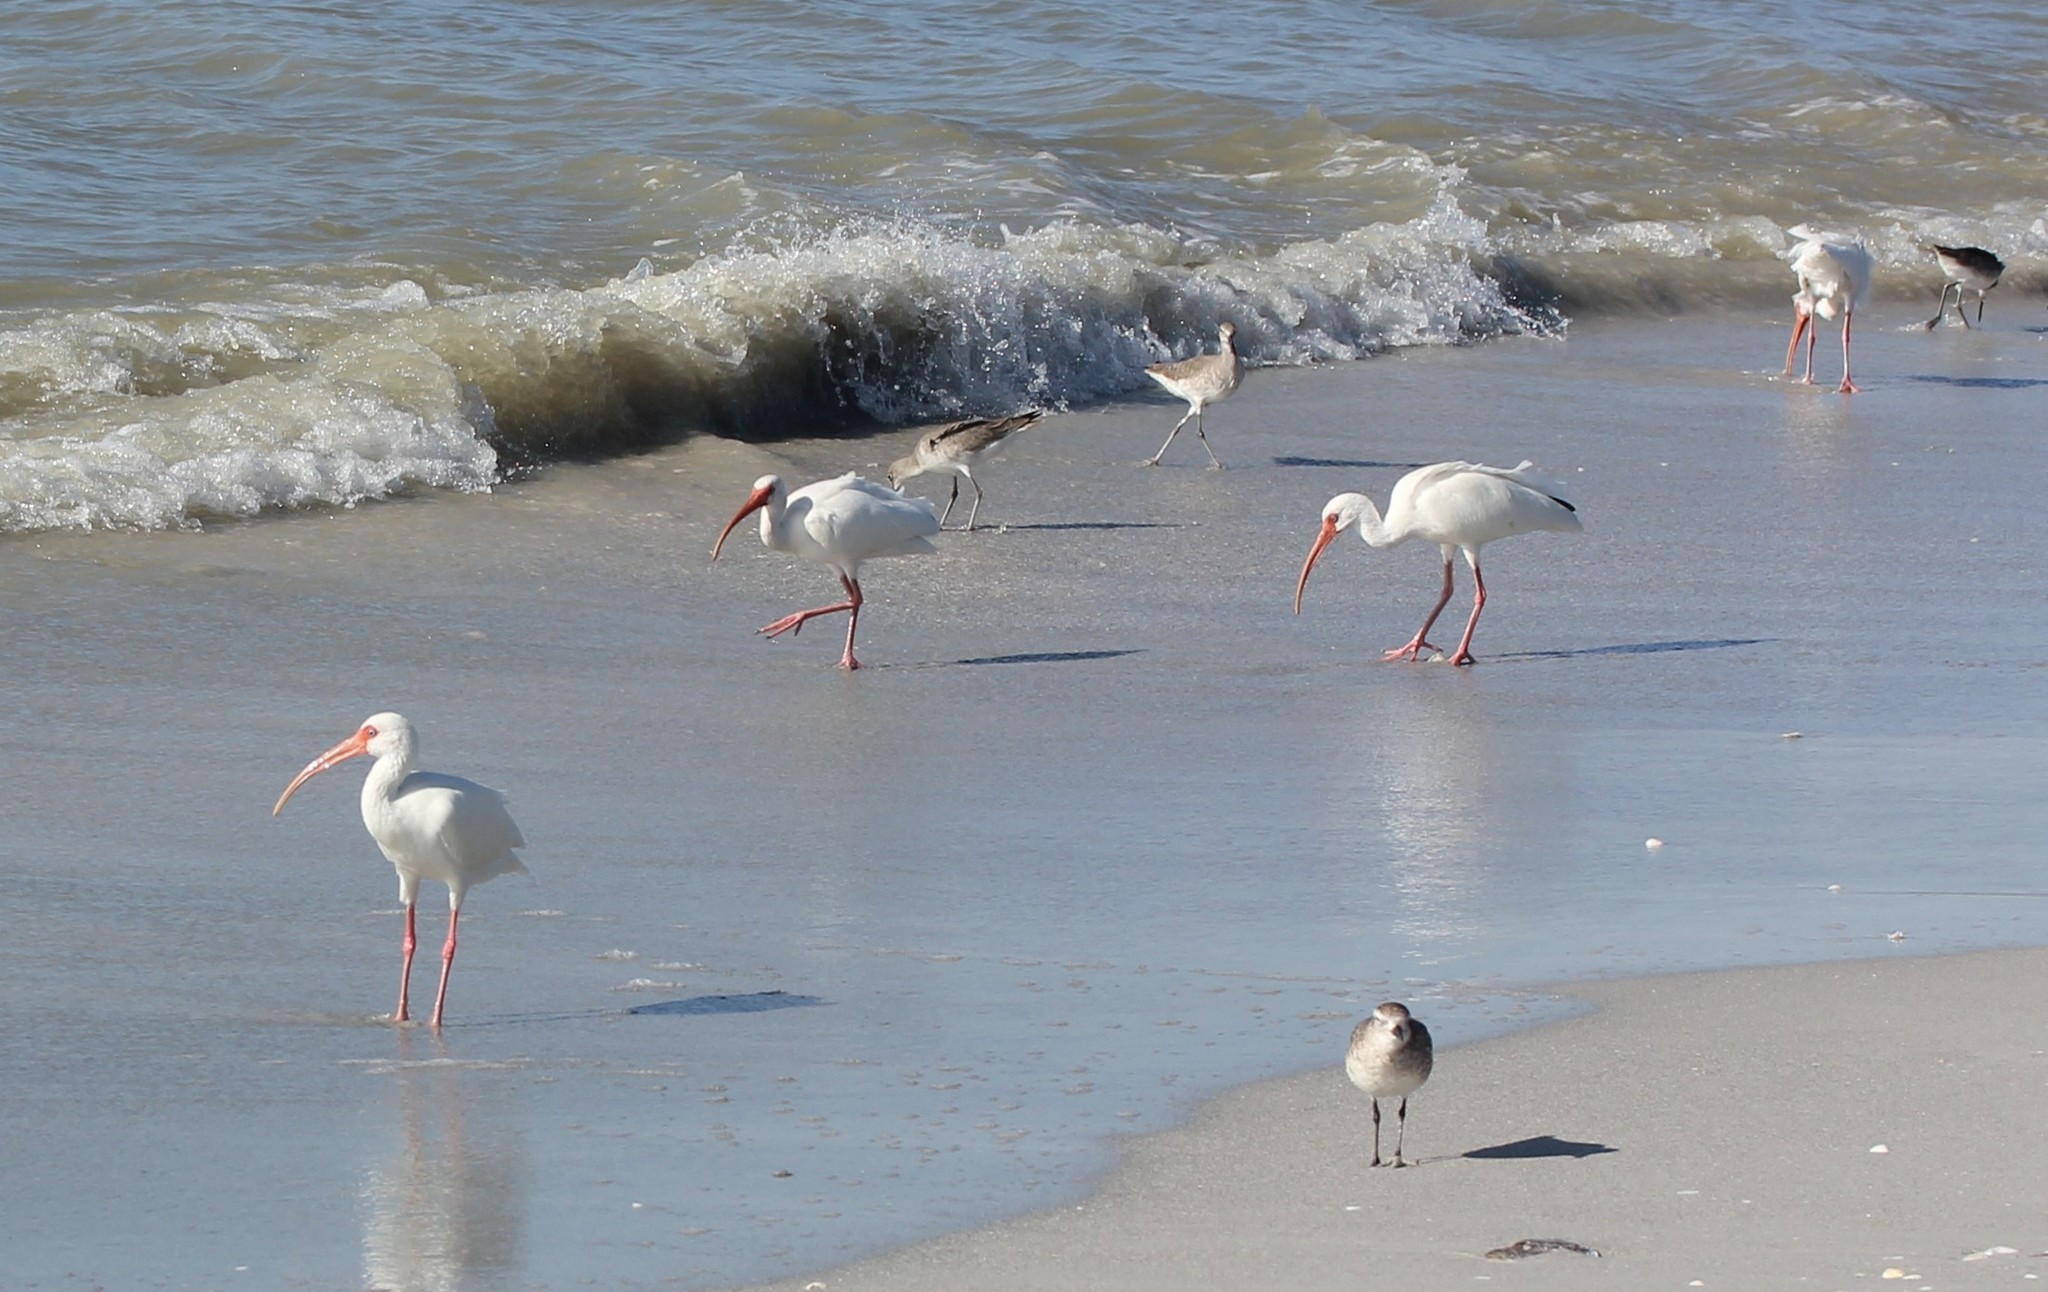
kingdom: Animalia
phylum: Chordata
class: Aves
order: Pelecaniformes
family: Threskiornithidae
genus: Eudocimus
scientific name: Eudocimus albus
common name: White ibis
